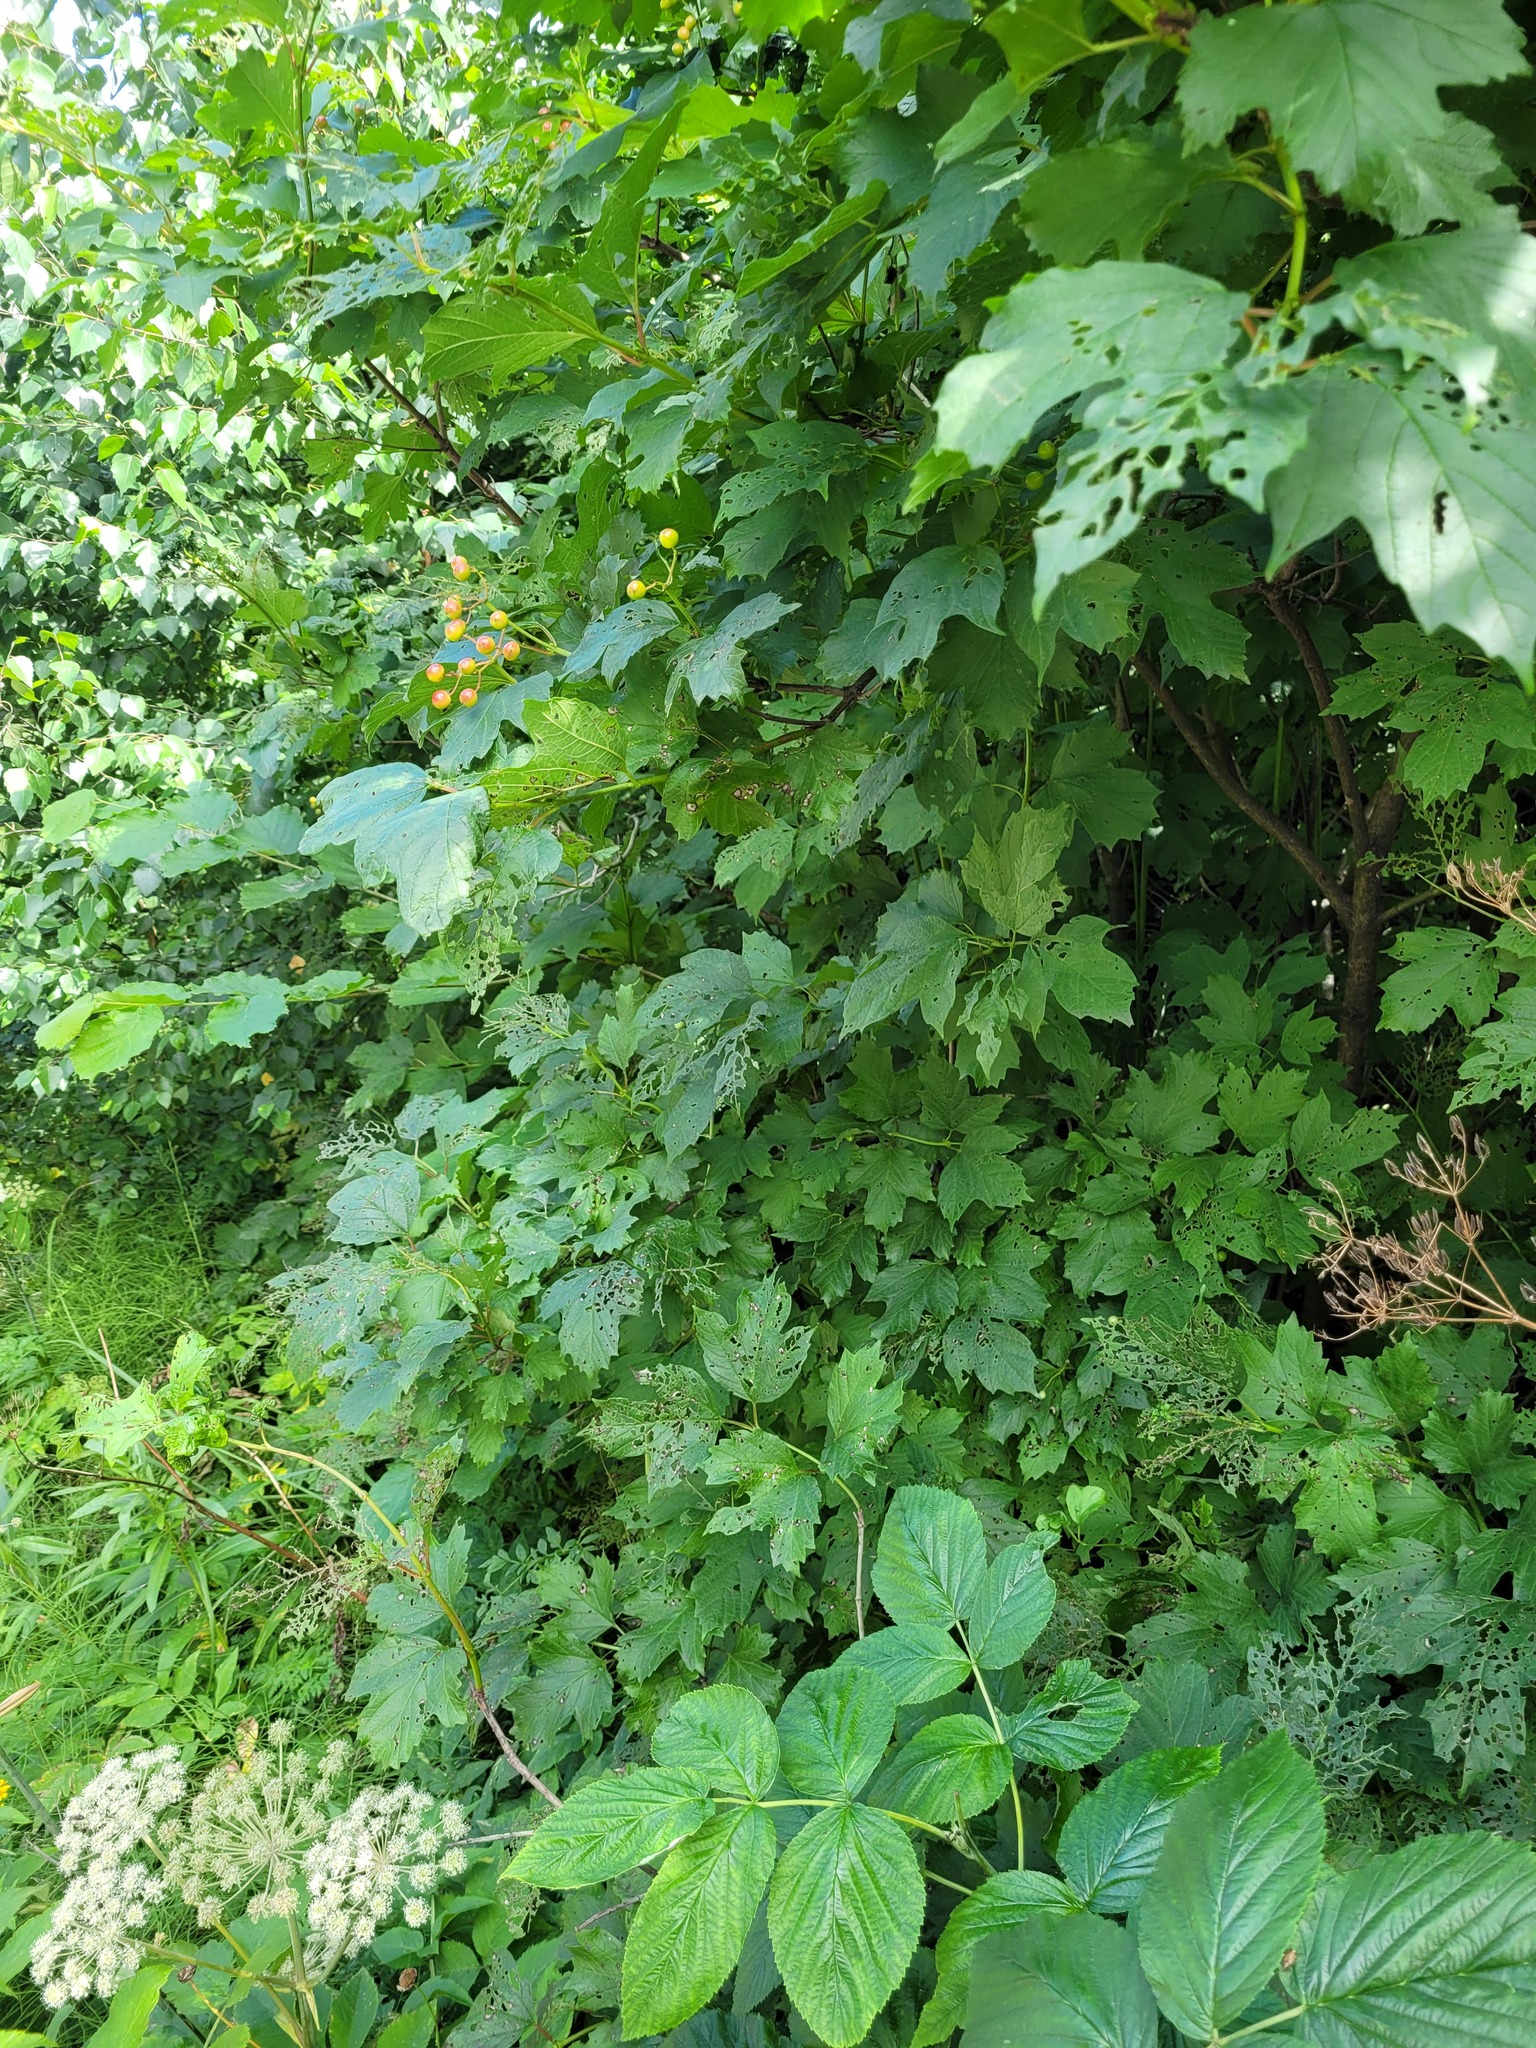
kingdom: Plantae
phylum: Tracheophyta
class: Magnoliopsida
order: Dipsacales
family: Viburnaceae
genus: Viburnum
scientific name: Viburnum opulus
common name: Guelder-rose
